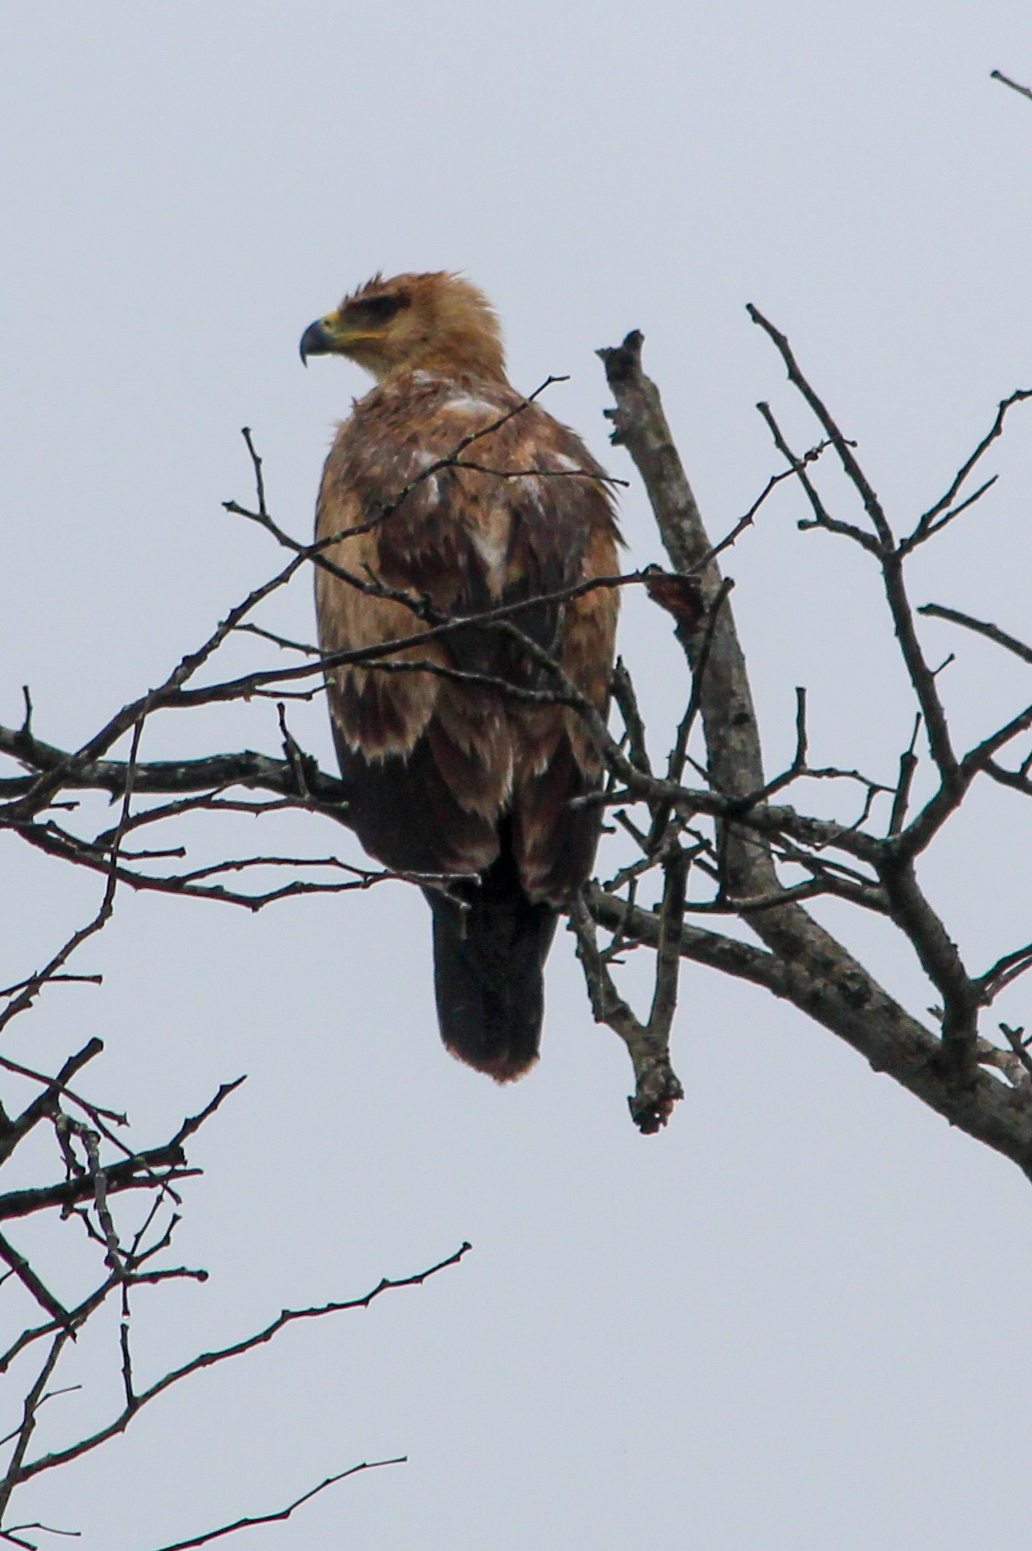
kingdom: Animalia
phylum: Chordata
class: Aves
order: Accipitriformes
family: Accipitridae
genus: Aquila
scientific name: Aquila rapax
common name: Tawny eagle
